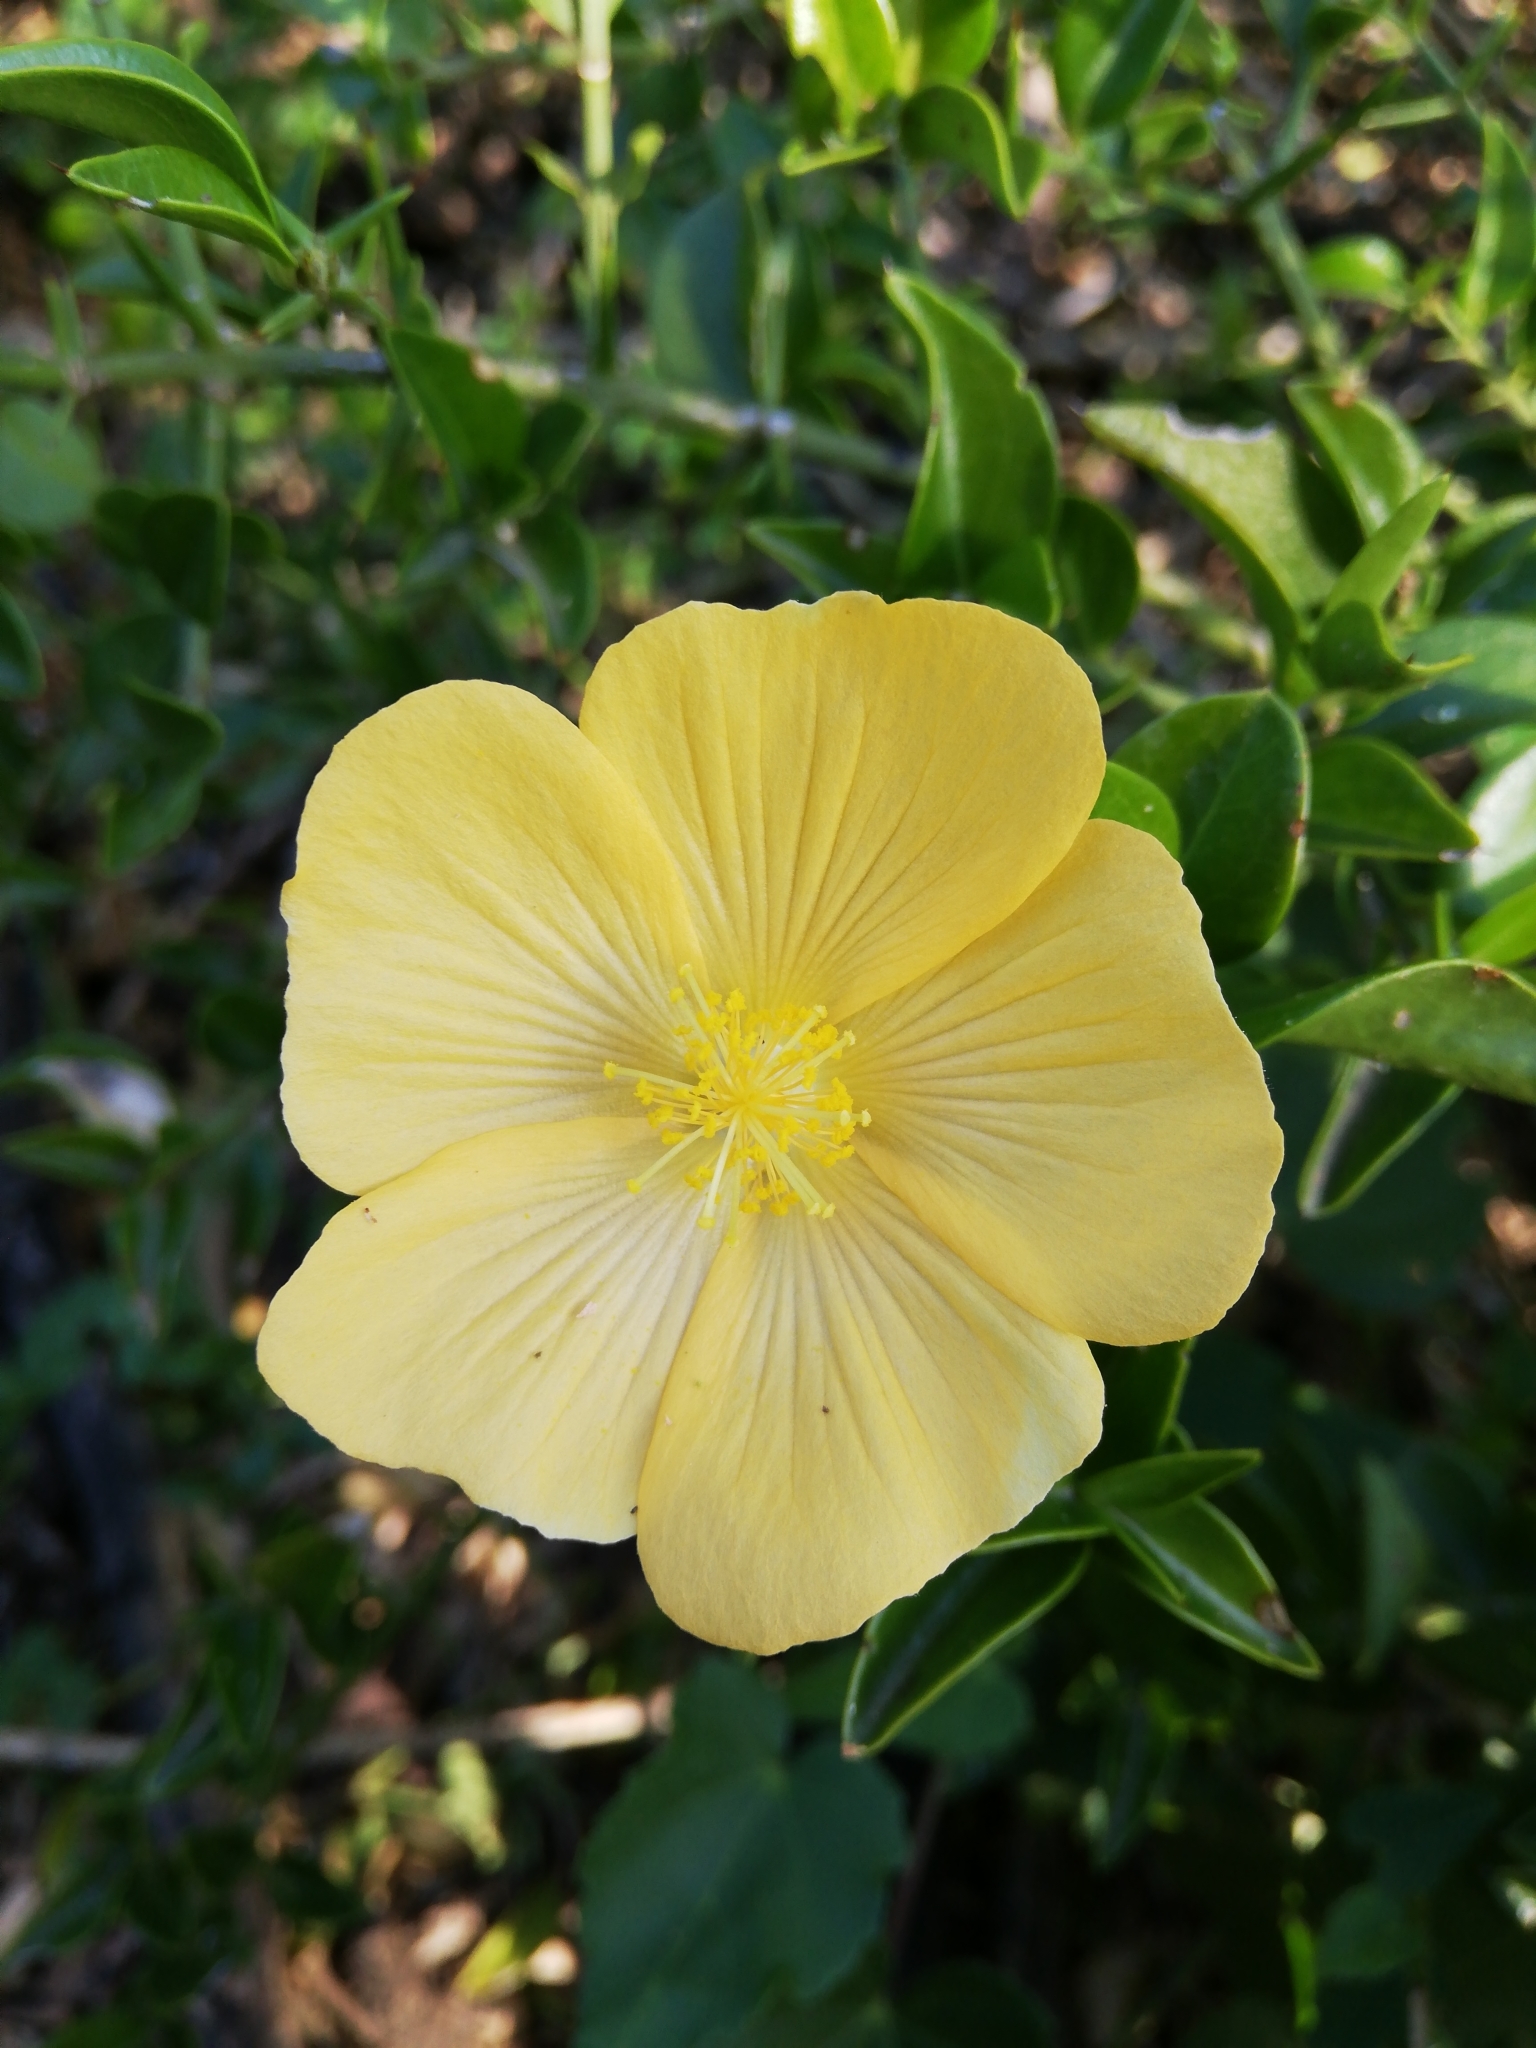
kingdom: Plantae
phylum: Tracheophyta
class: Magnoliopsida
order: Malvales
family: Malvaceae
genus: Pavonia
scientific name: Pavonia praemorsa
